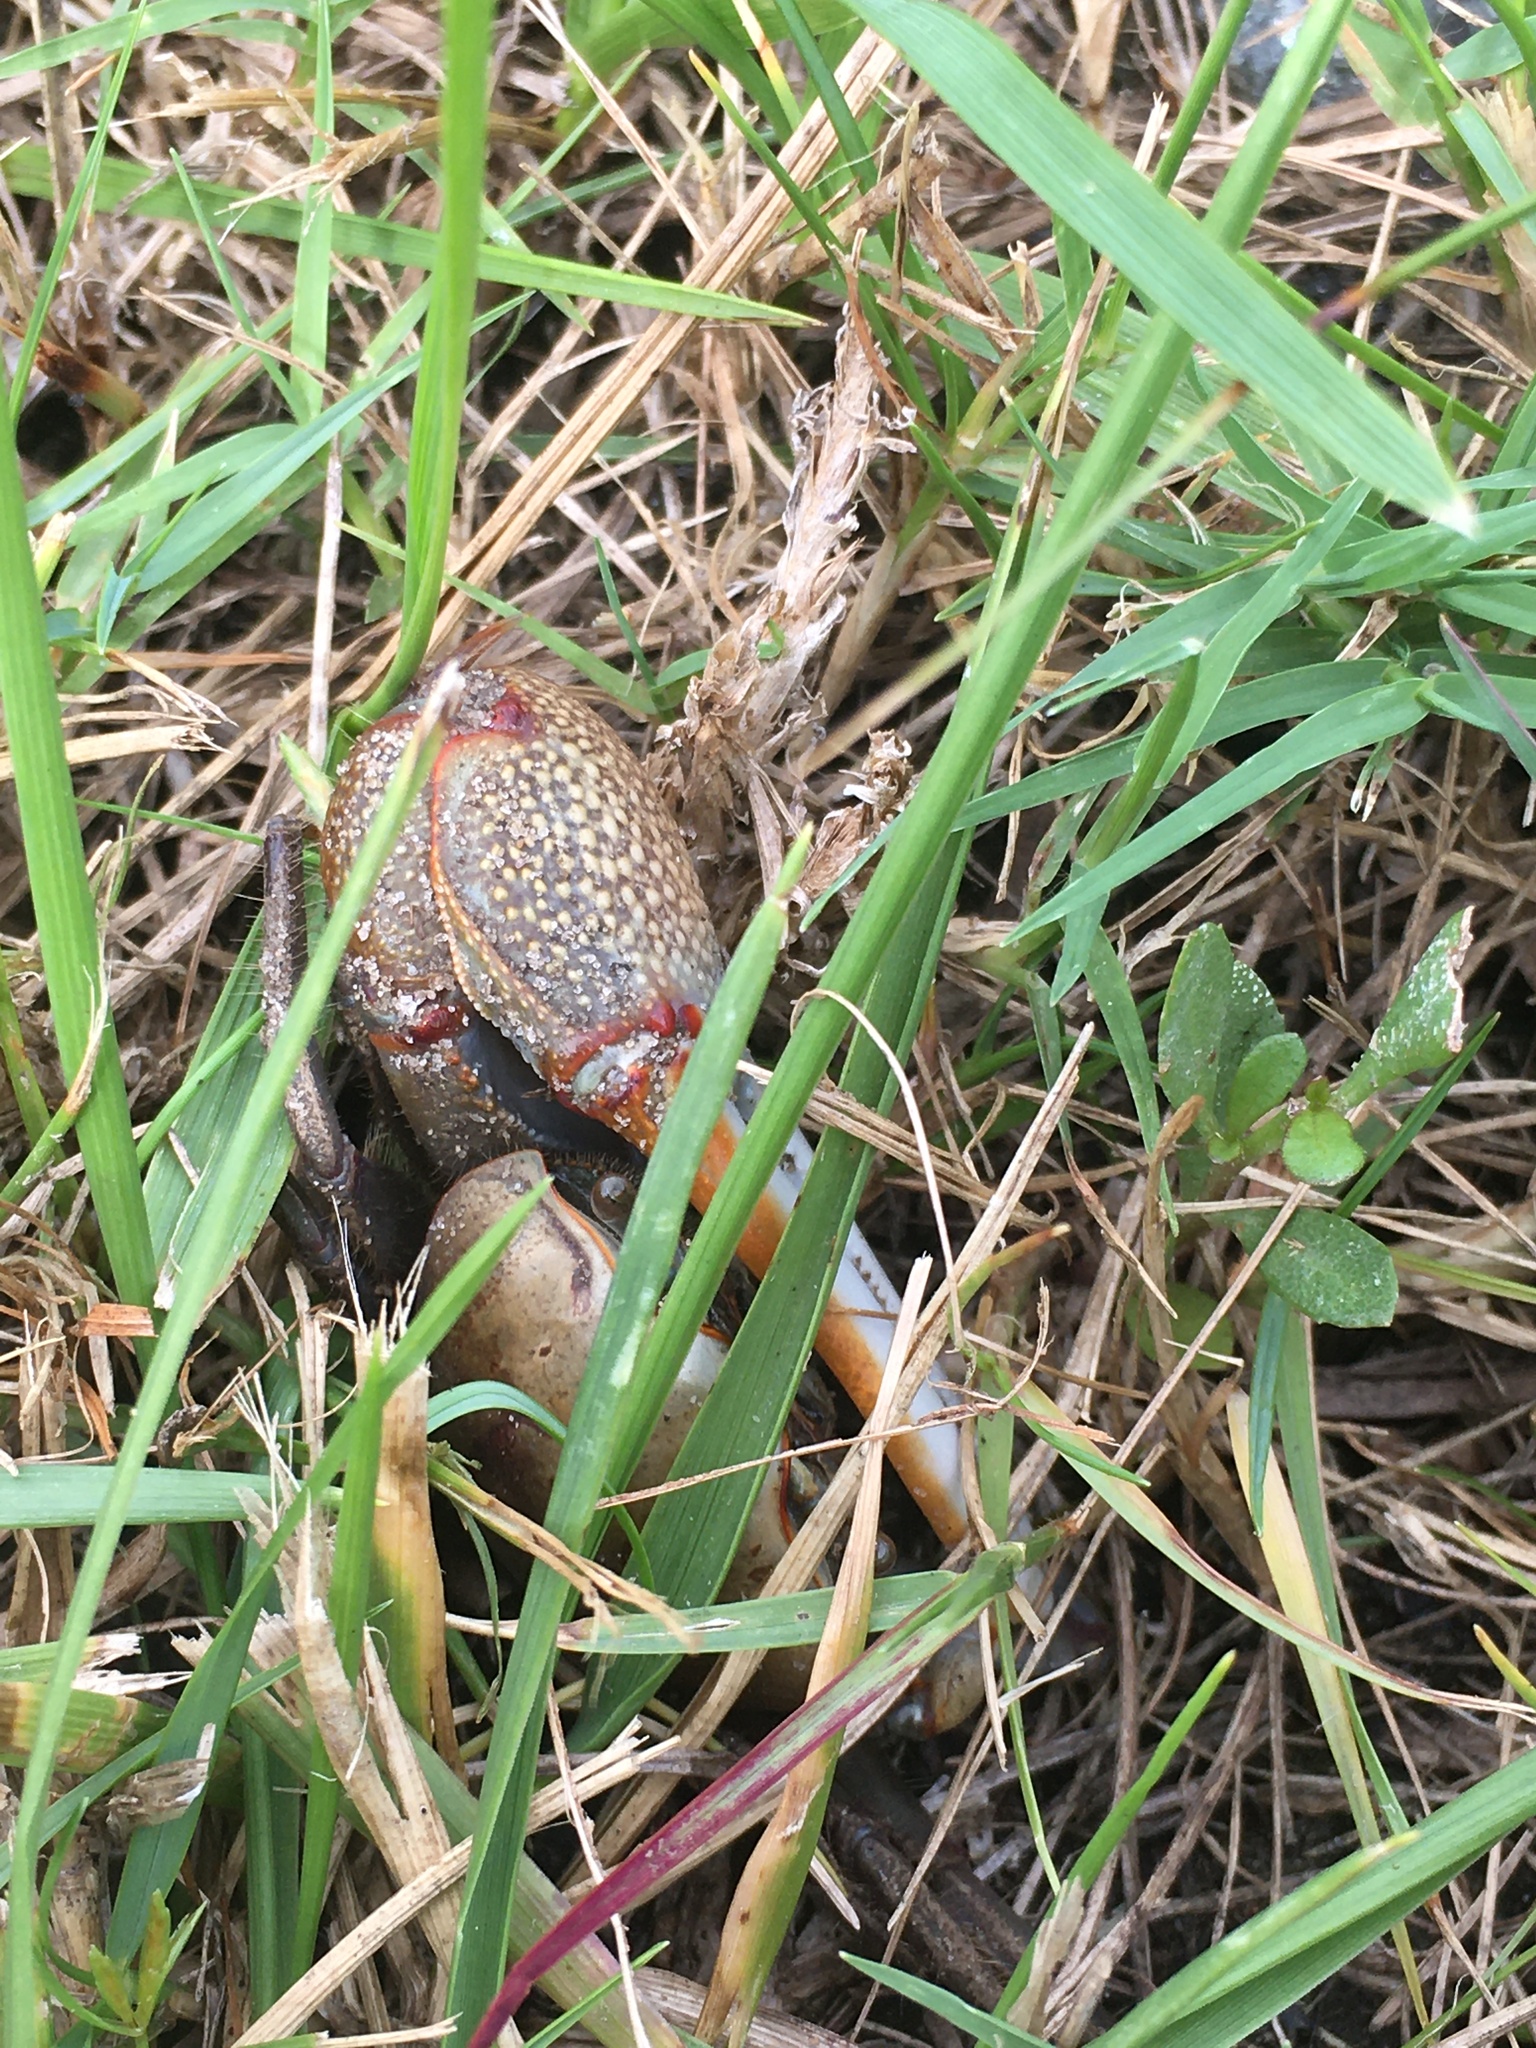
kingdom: Animalia
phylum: Arthropoda
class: Malacostraca
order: Decapoda
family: Ocypodidae
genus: Minuca
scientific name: Minuca minax
